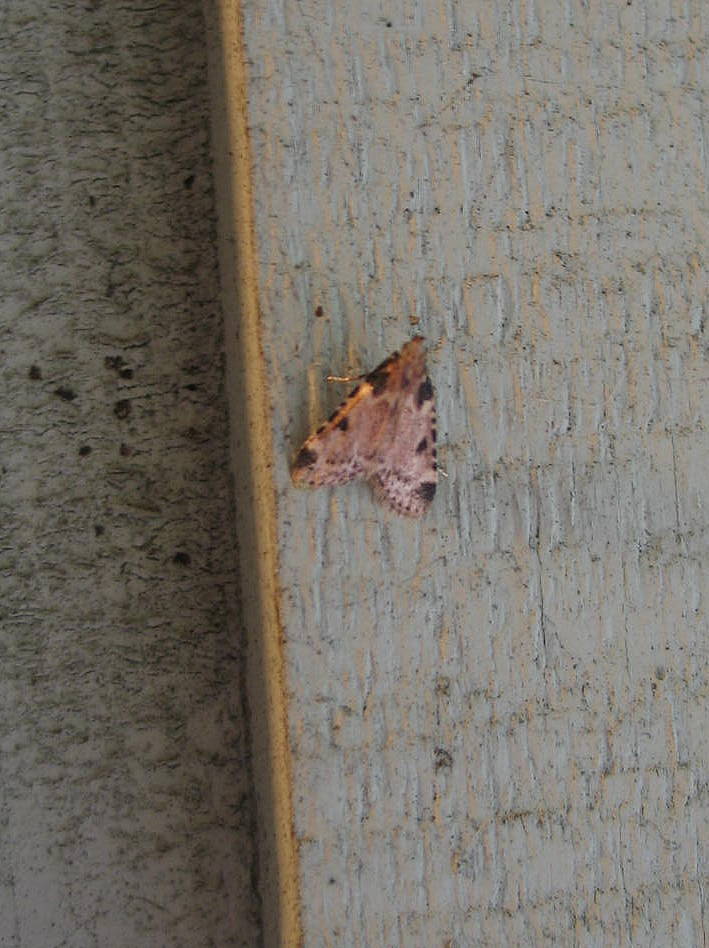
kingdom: Animalia
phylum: Arthropoda
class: Insecta
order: Lepidoptera
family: Pyralidae
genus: Aglossa
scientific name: Aglossa costiferalis
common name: Calico pyralid moth
